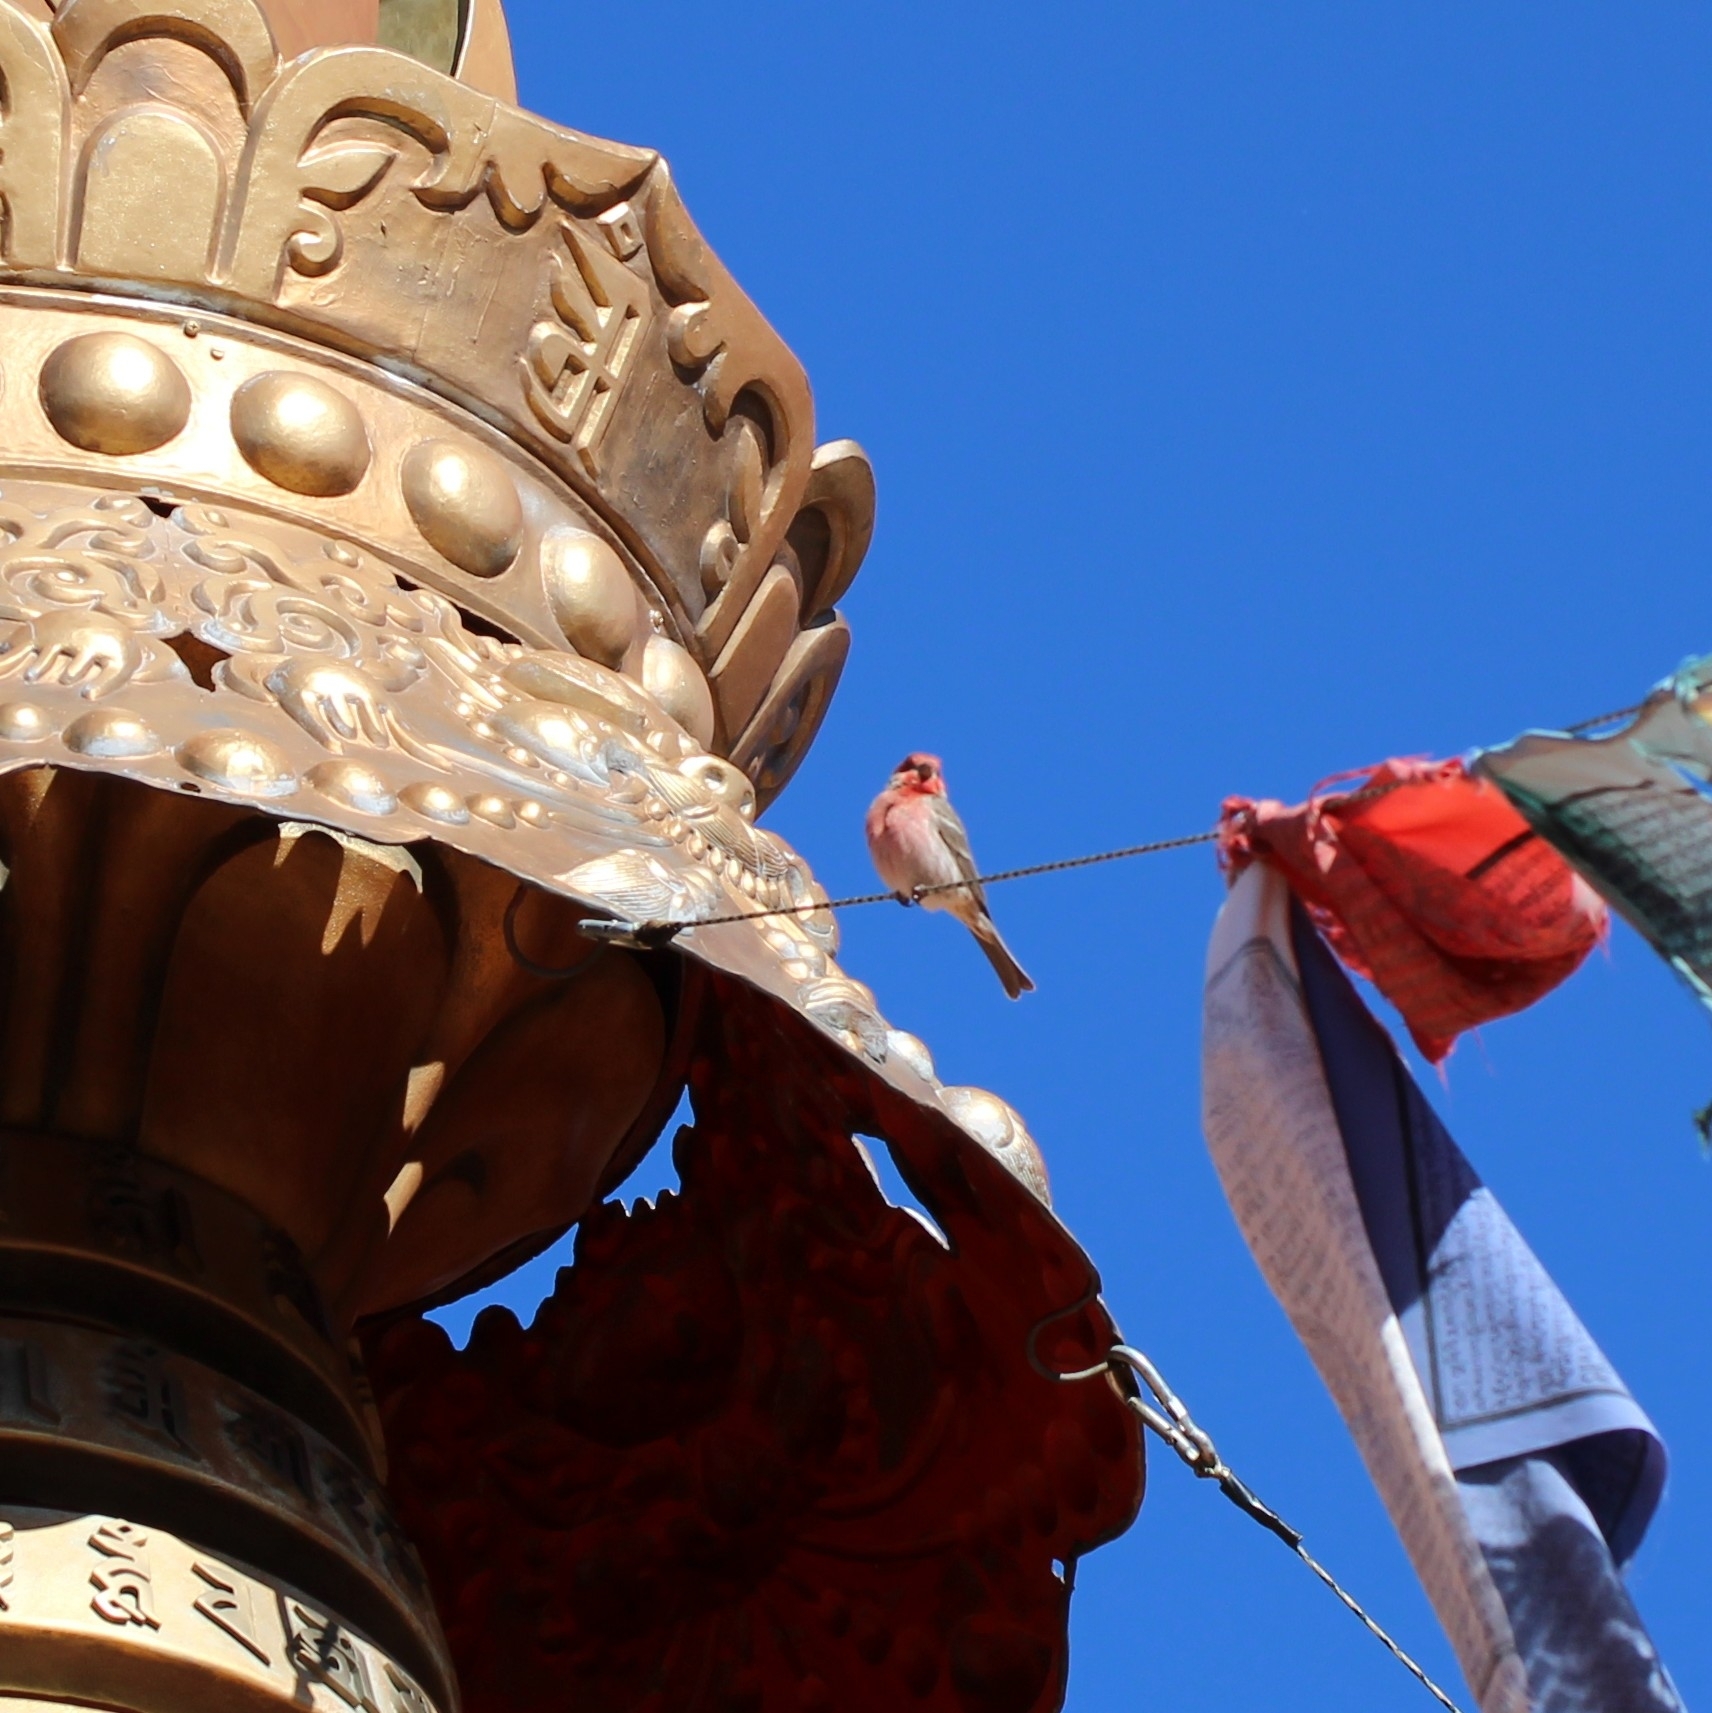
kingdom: Animalia
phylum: Chordata
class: Aves
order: Passeriformes
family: Fringillidae
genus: Haemorhous
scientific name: Haemorhous mexicanus
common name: House finch
